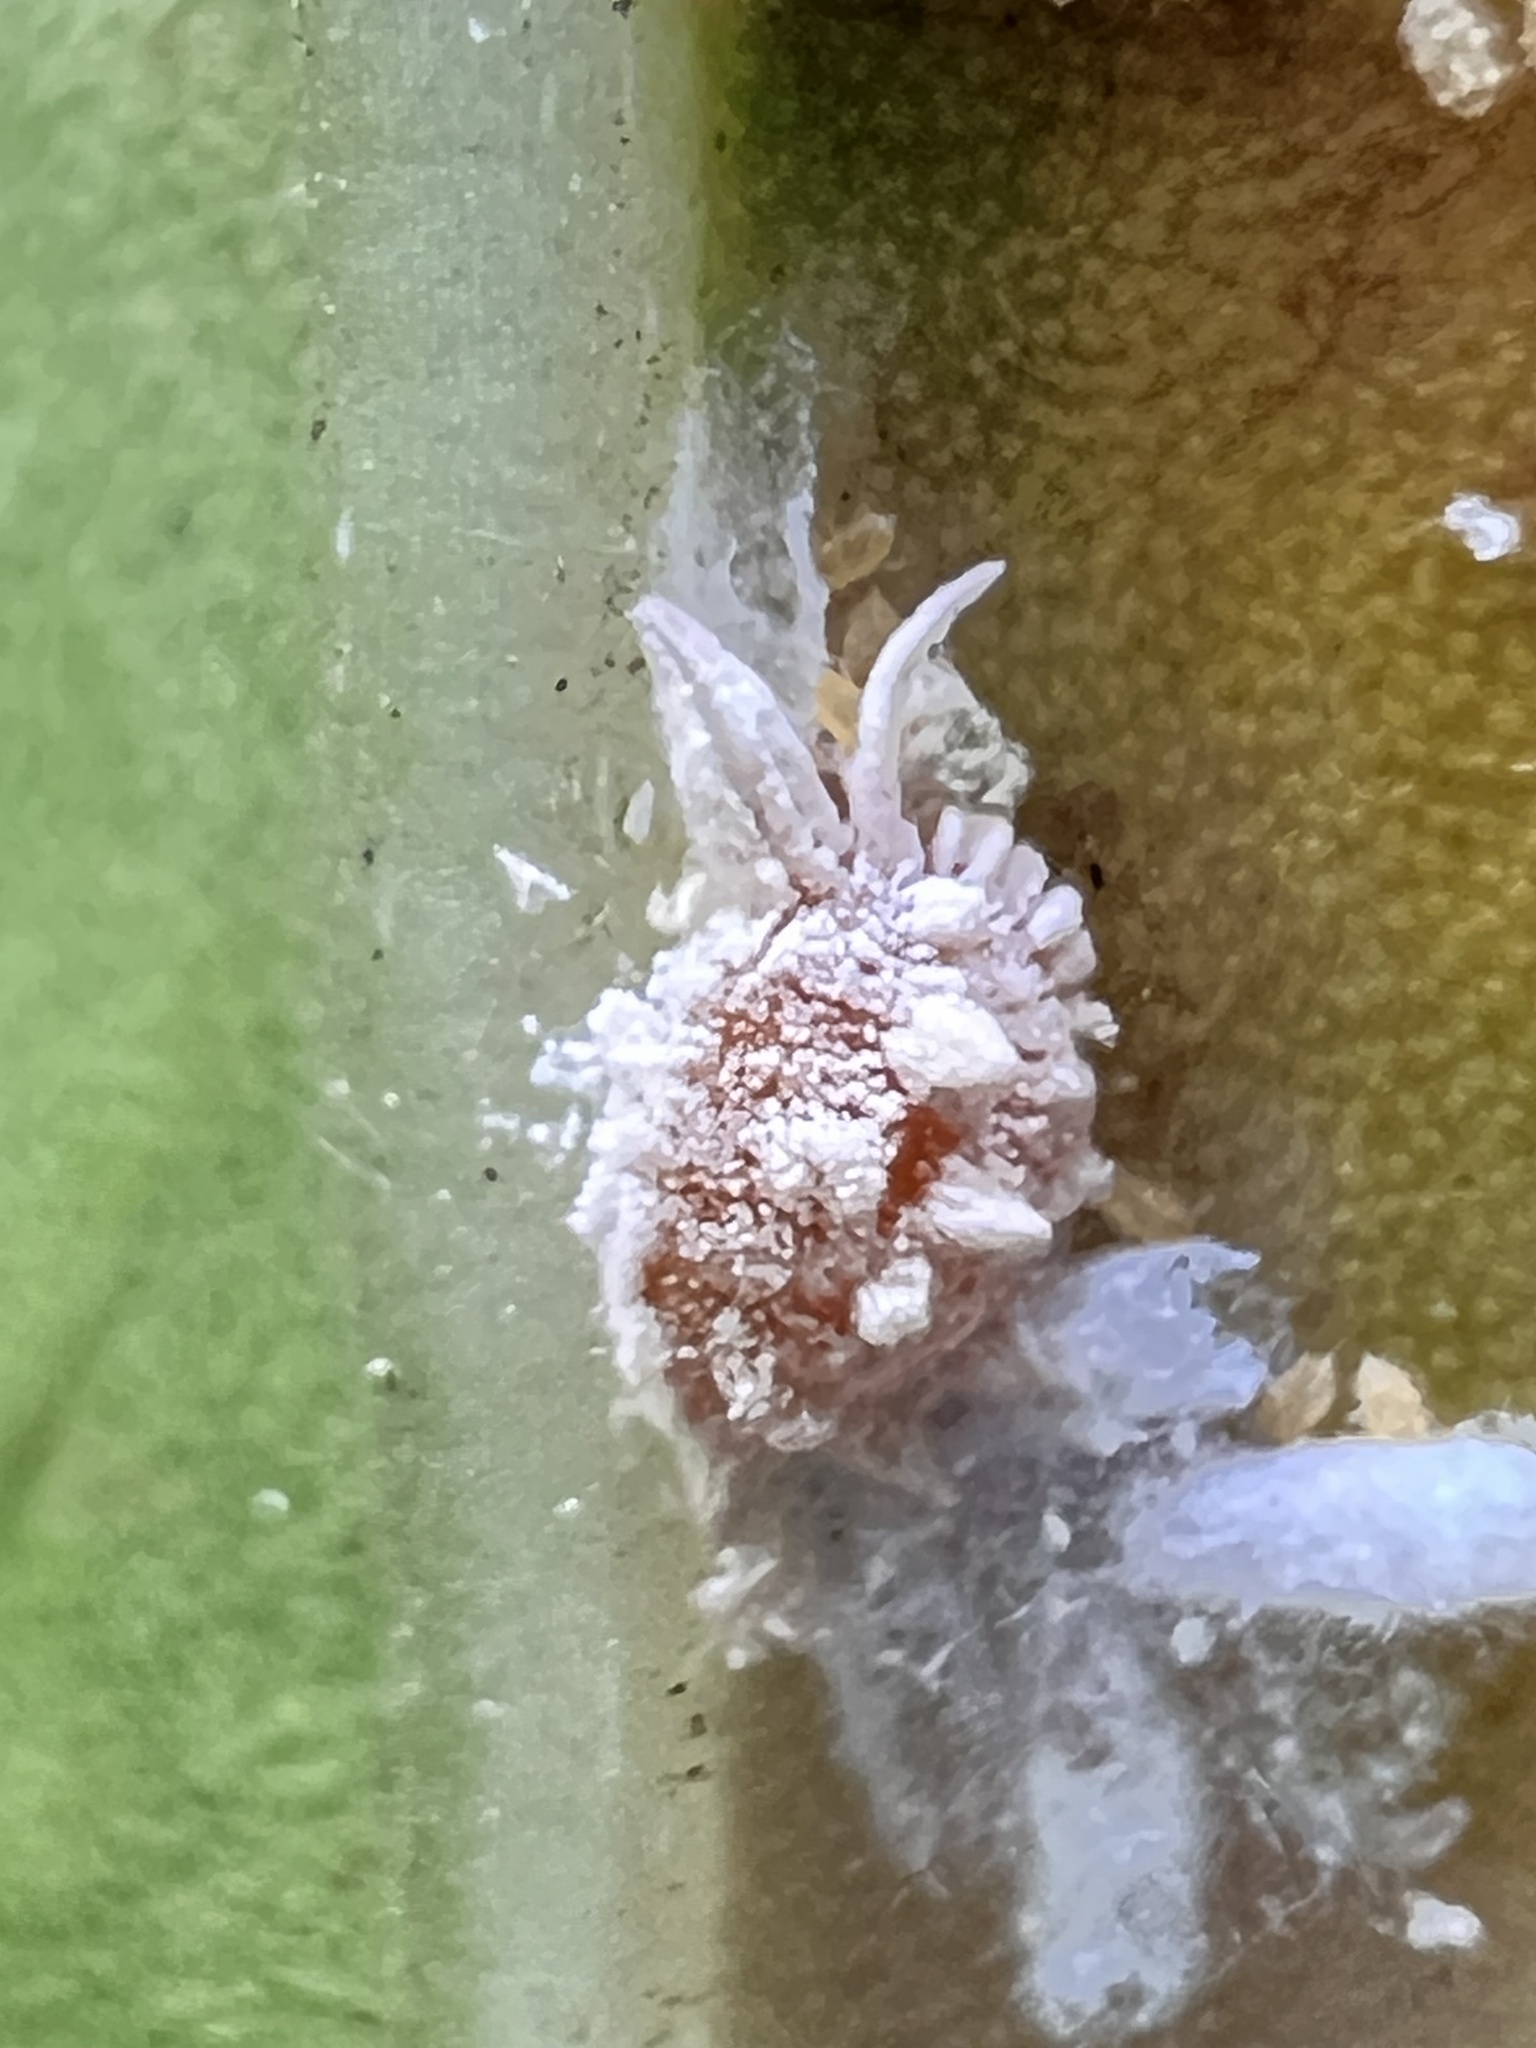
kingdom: Animalia
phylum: Arthropoda
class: Insecta
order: Hemiptera
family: Pseudococcidae
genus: Nipaecoccus
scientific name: Nipaecoccus nipae
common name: Kentia mealybug
